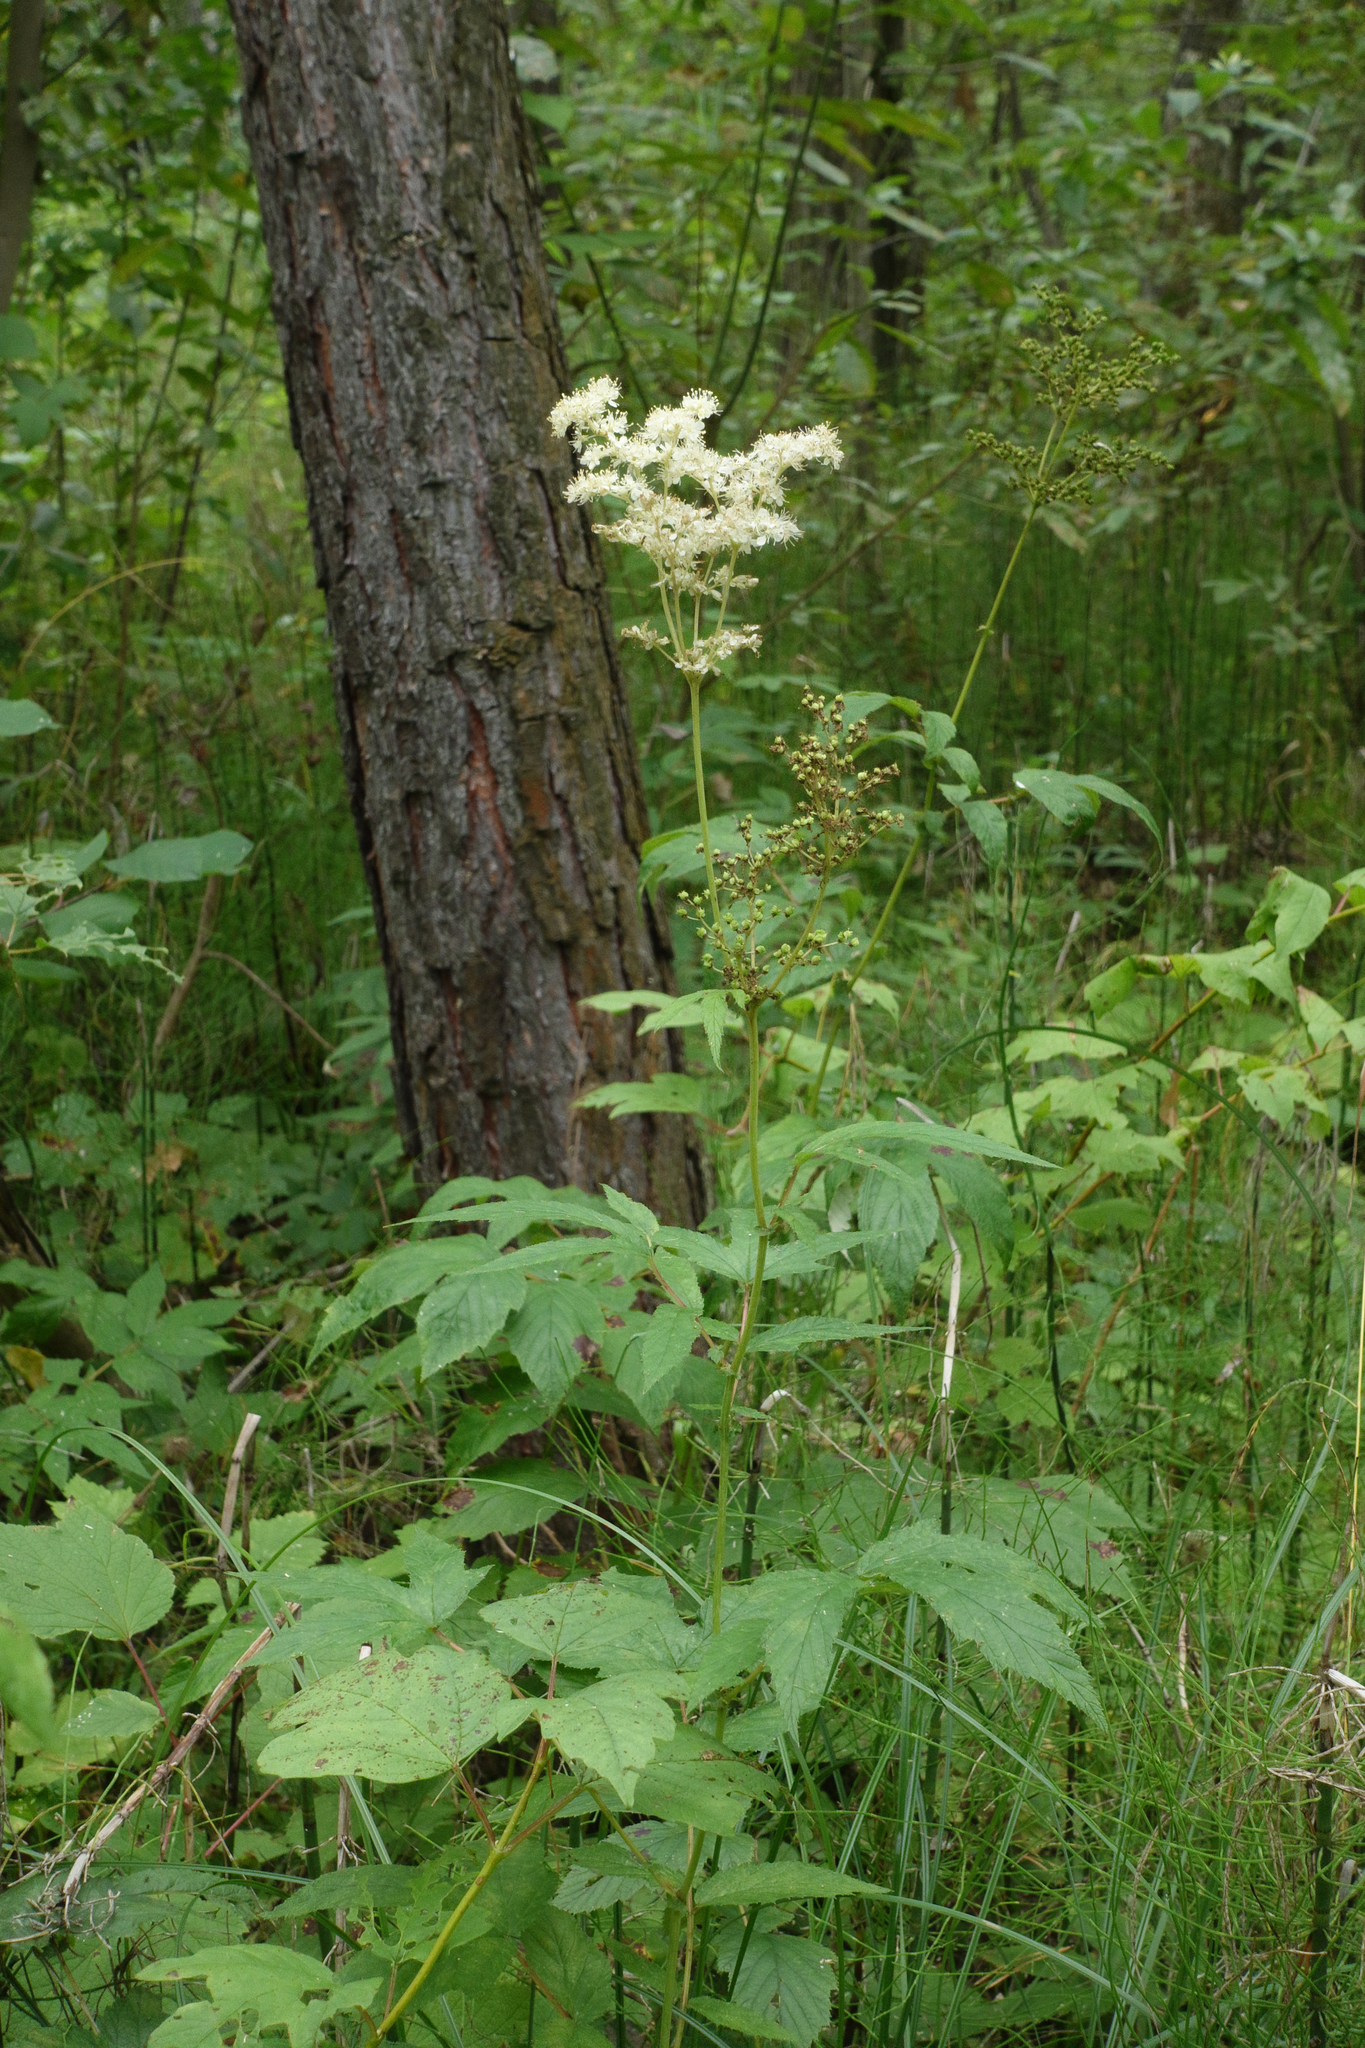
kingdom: Plantae
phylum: Tracheophyta
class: Magnoliopsida
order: Rosales
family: Rosaceae
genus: Filipendula
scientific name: Filipendula ulmaria
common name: Meadowsweet
